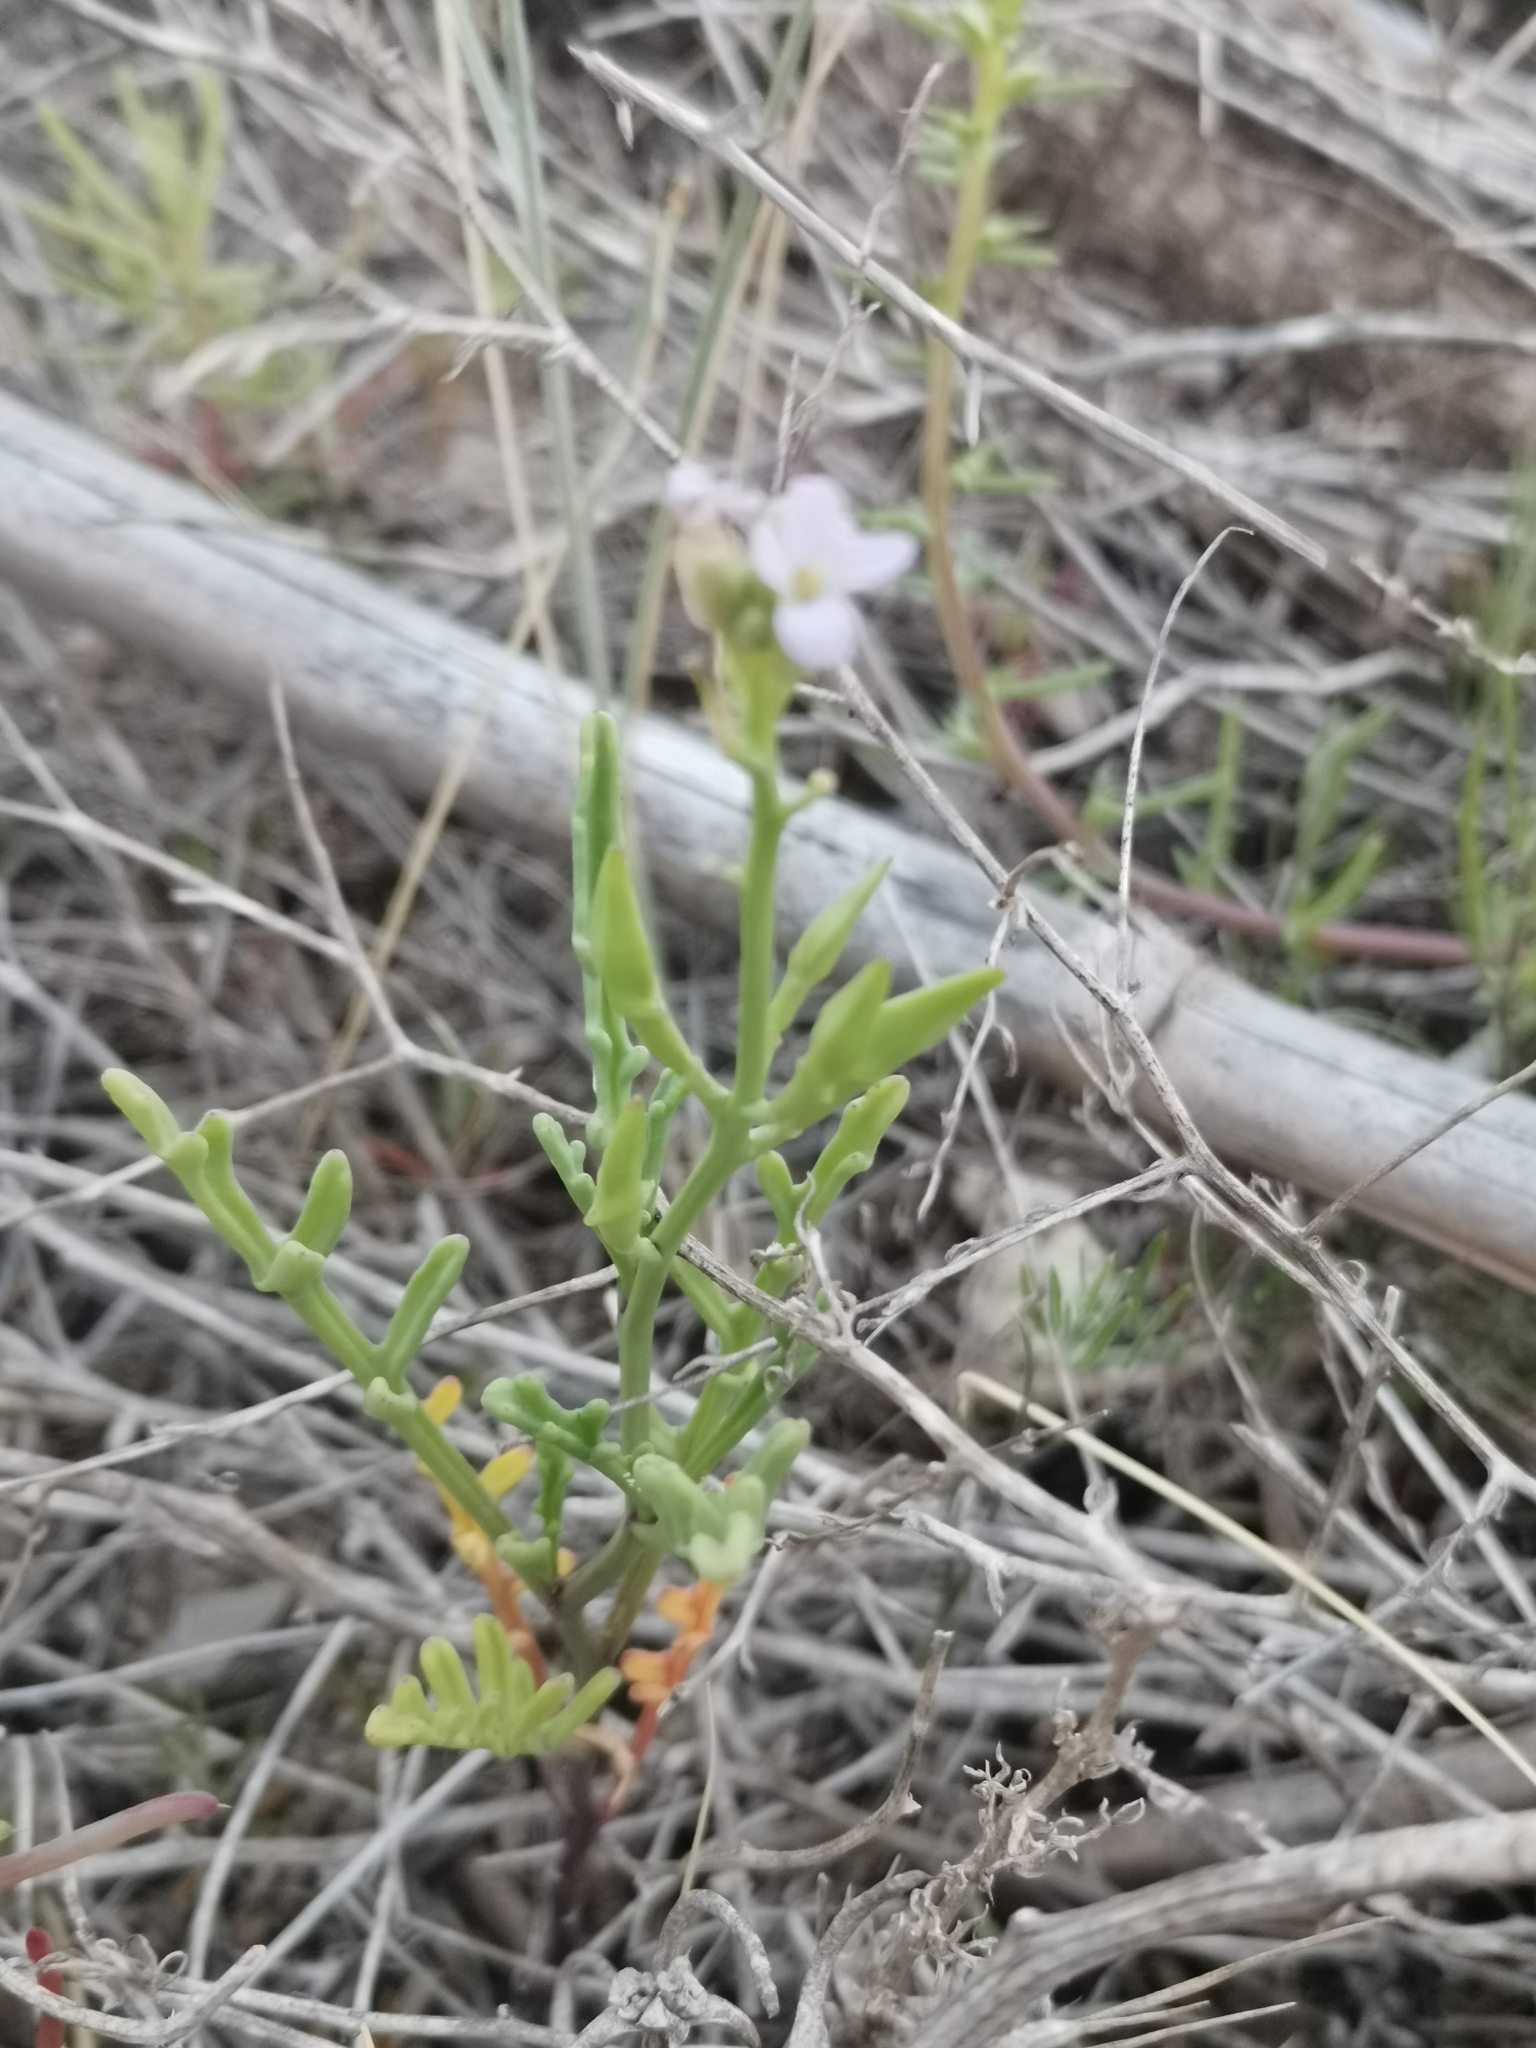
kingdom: Plantae
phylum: Tracheophyta
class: Magnoliopsida
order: Brassicales
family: Brassicaceae
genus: Cakile
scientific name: Cakile maritima
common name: Sea rocket
